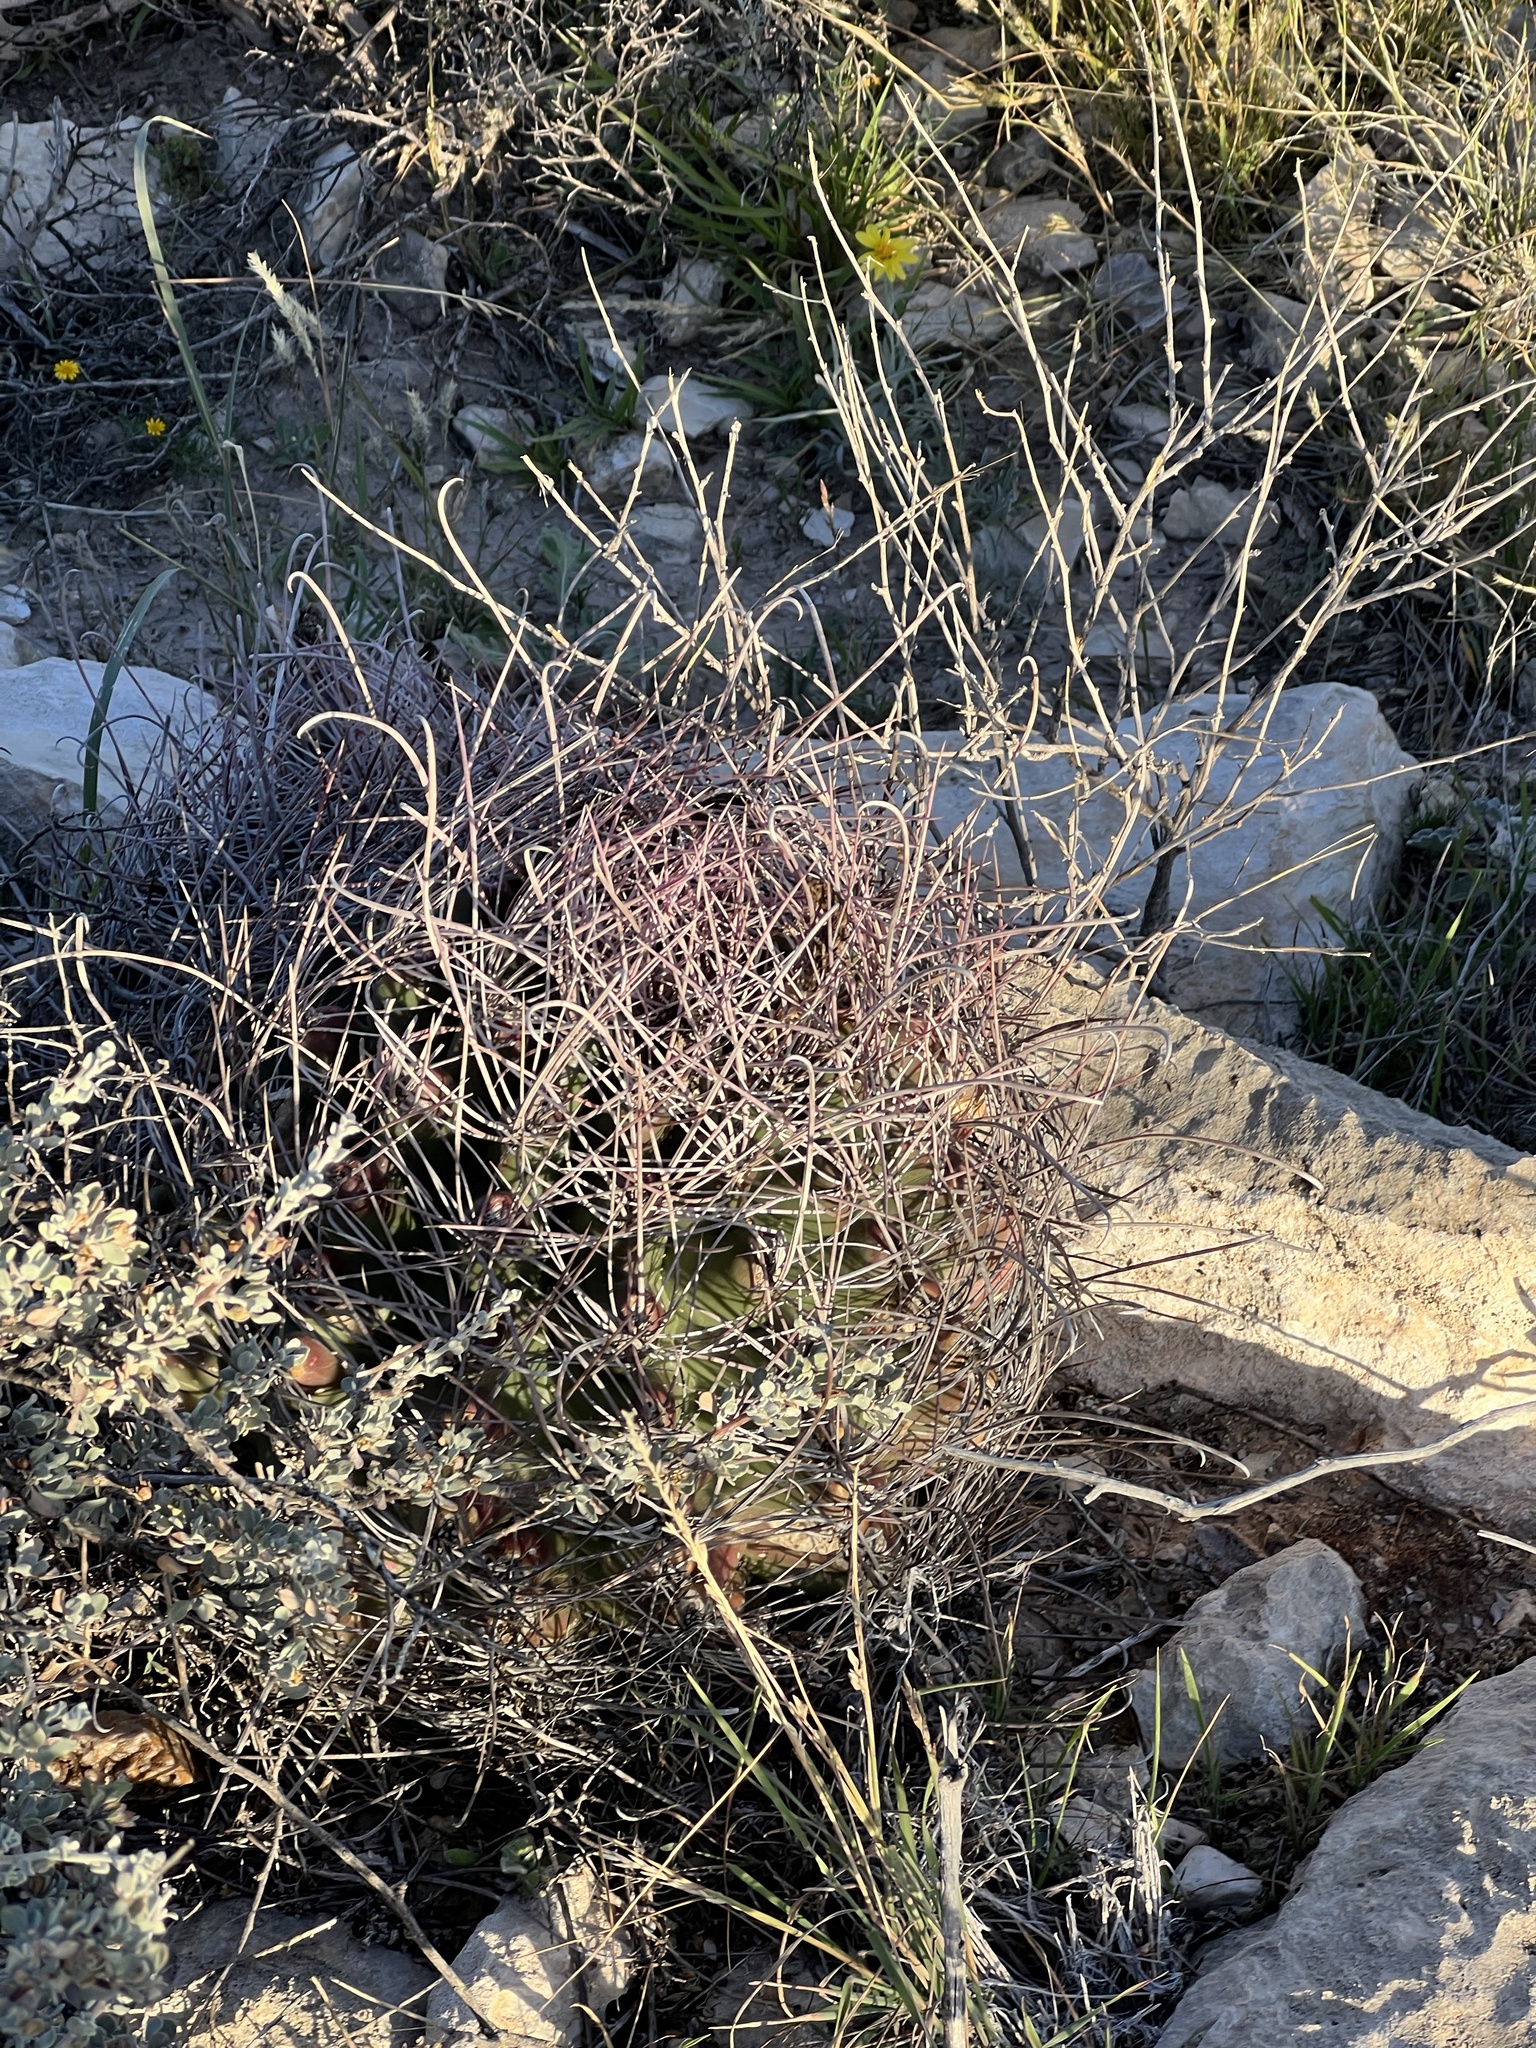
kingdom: Plantae
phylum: Tracheophyta
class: Magnoliopsida
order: Caryophyllales
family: Cactaceae
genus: Bisnaga
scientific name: Bisnaga hamatacantha
